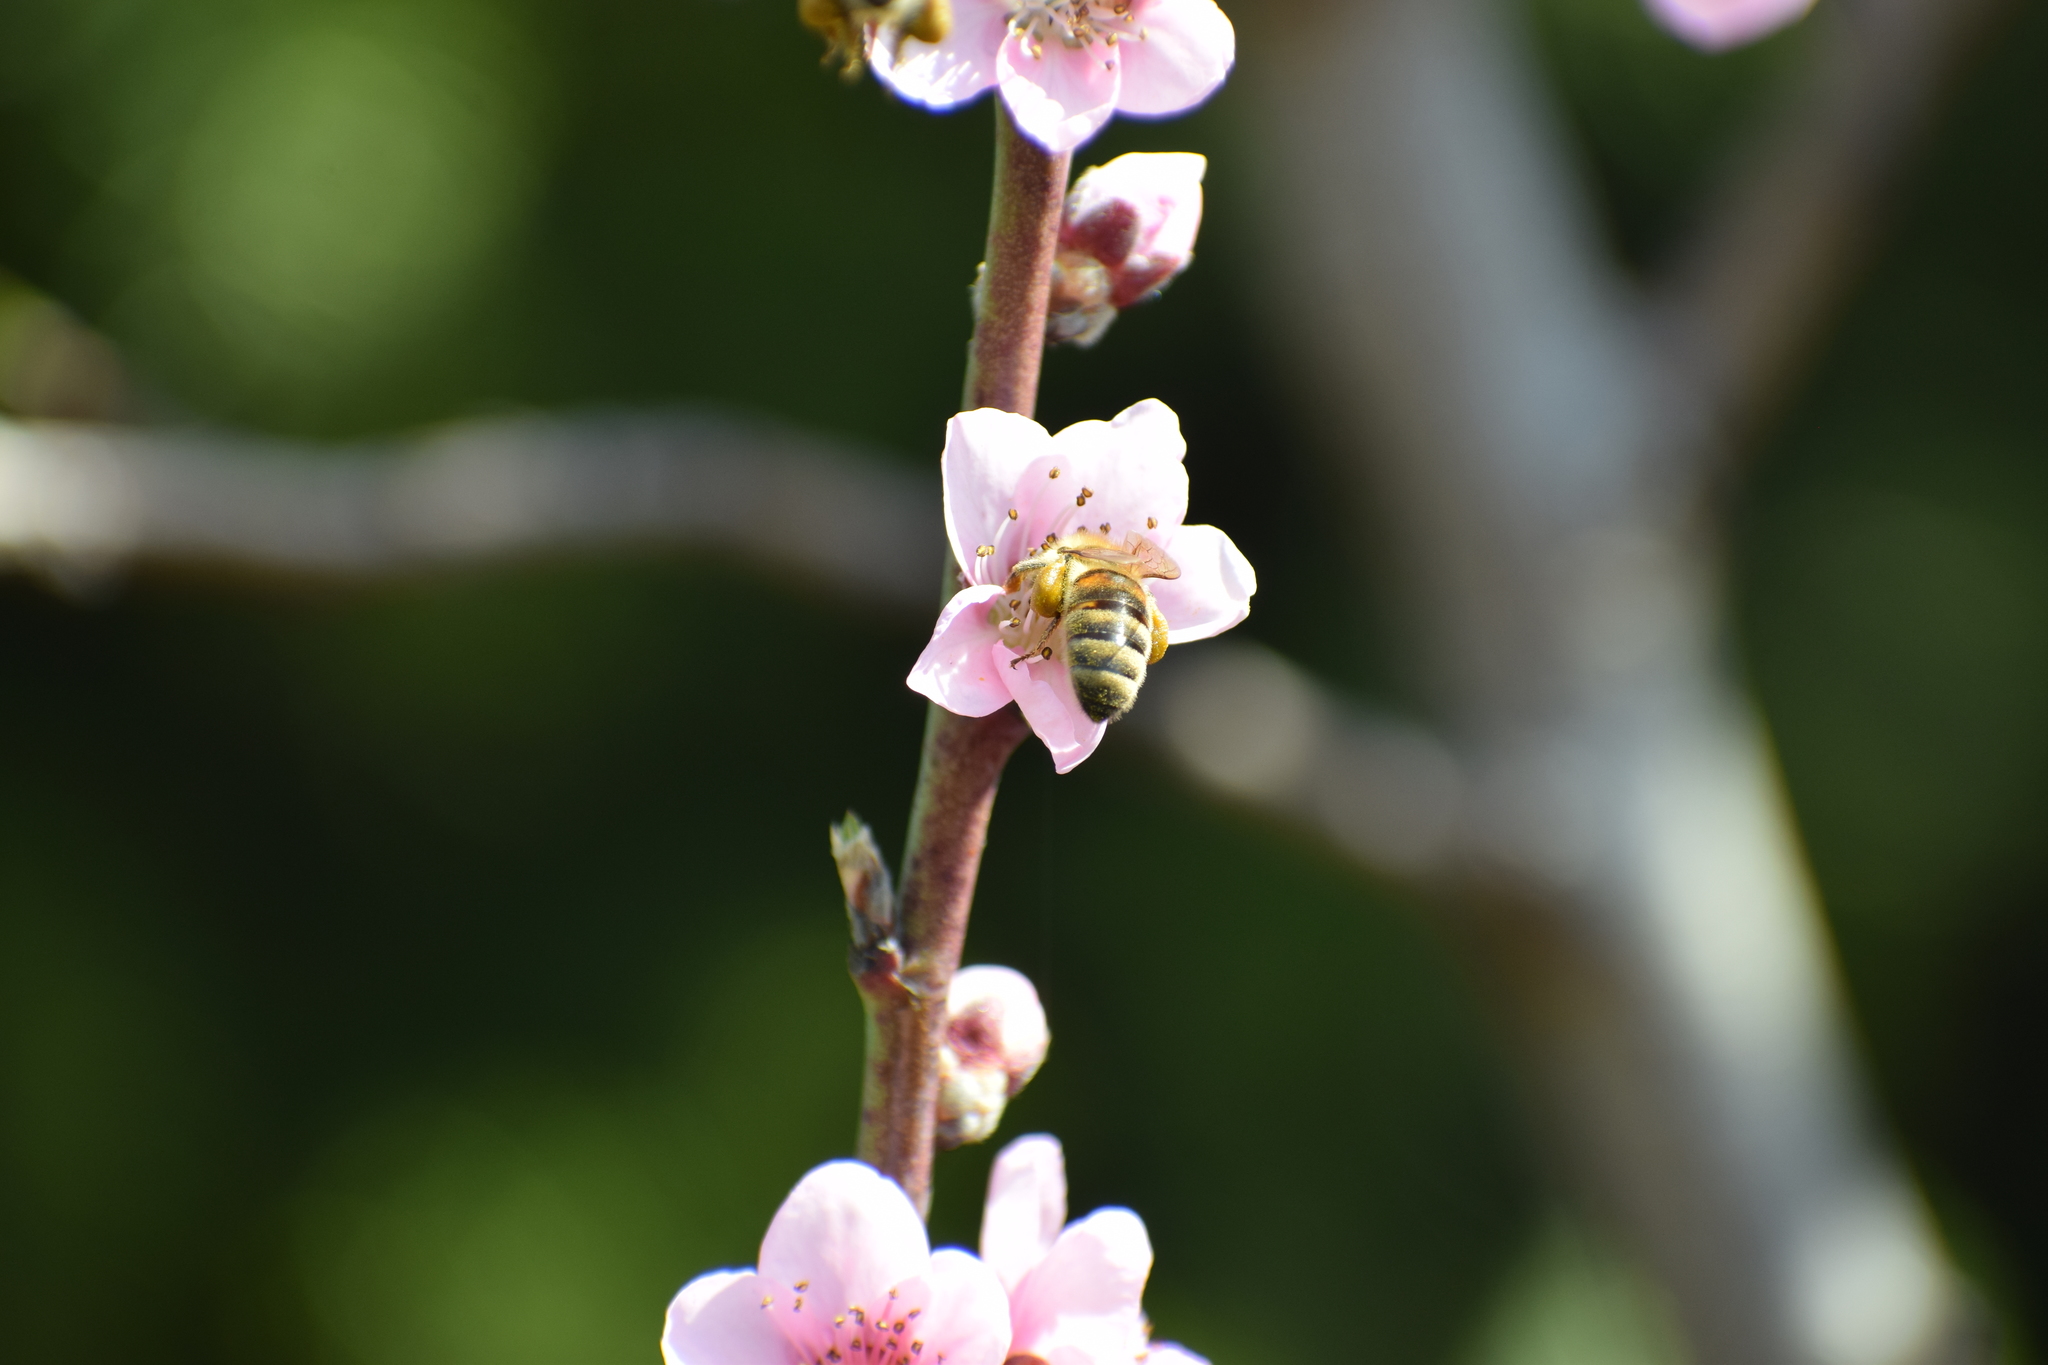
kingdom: Animalia
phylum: Arthropoda
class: Insecta
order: Hymenoptera
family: Apidae
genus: Apis
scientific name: Apis mellifera
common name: Honey bee
